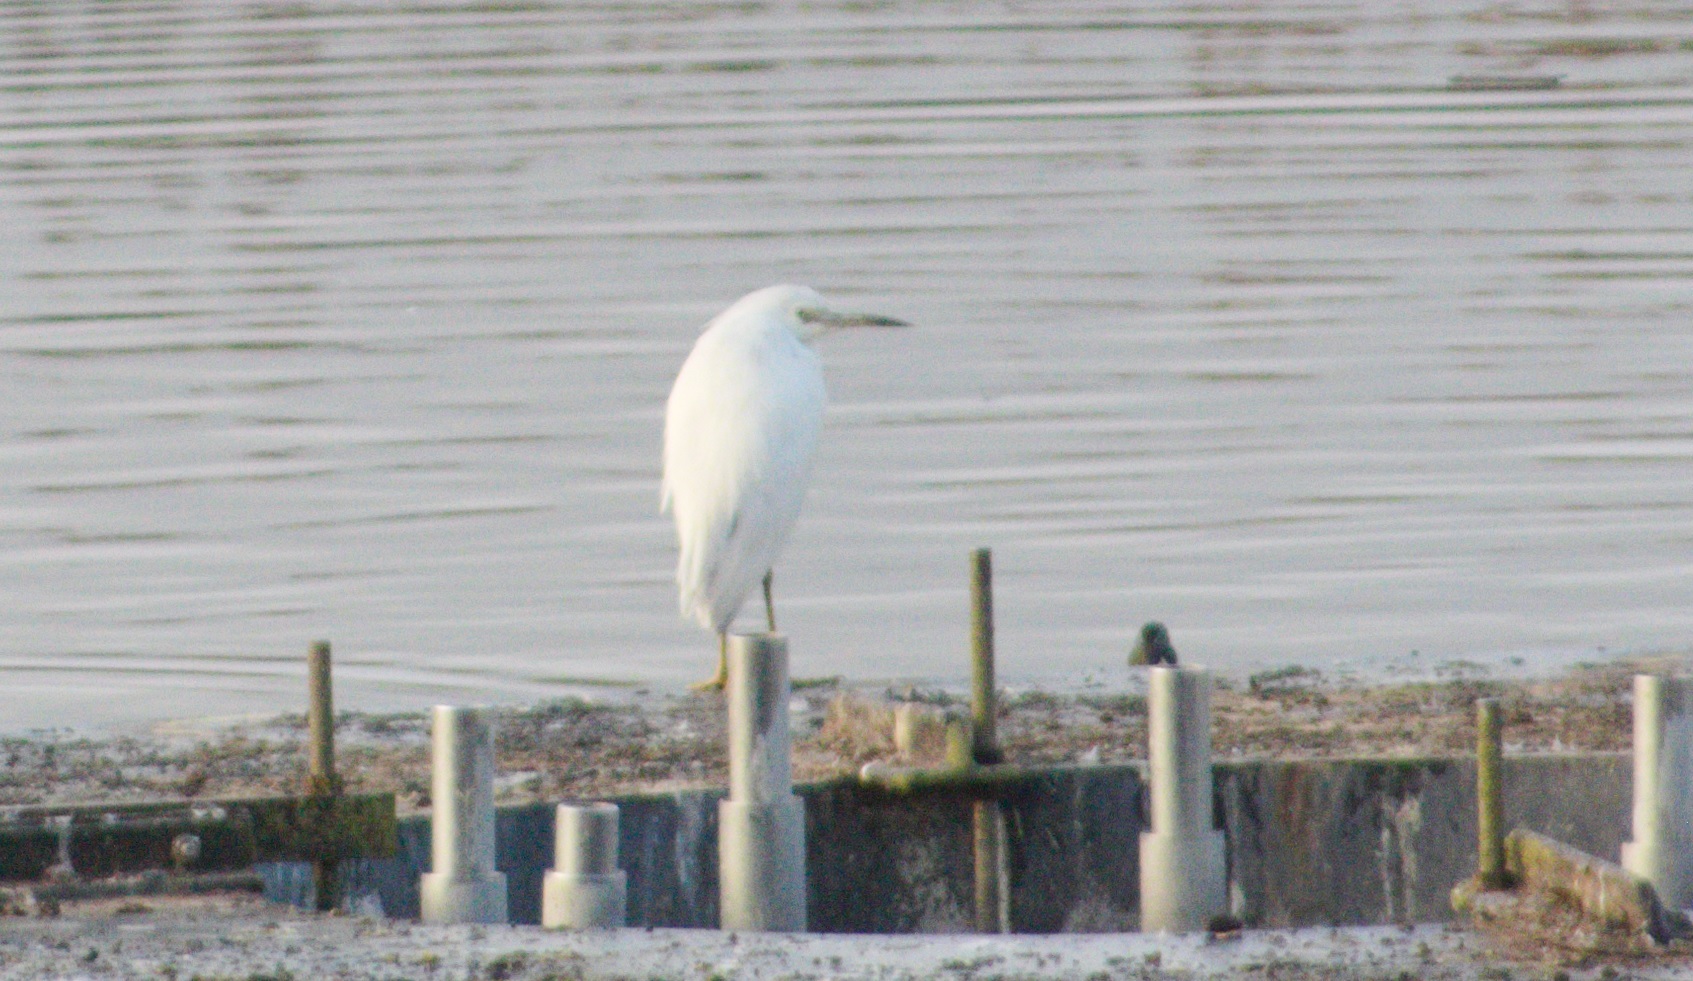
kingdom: Animalia
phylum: Chordata
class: Aves
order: Pelecaniformes
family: Ardeidae
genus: Egretta
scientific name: Egretta caerulea
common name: Little blue heron
